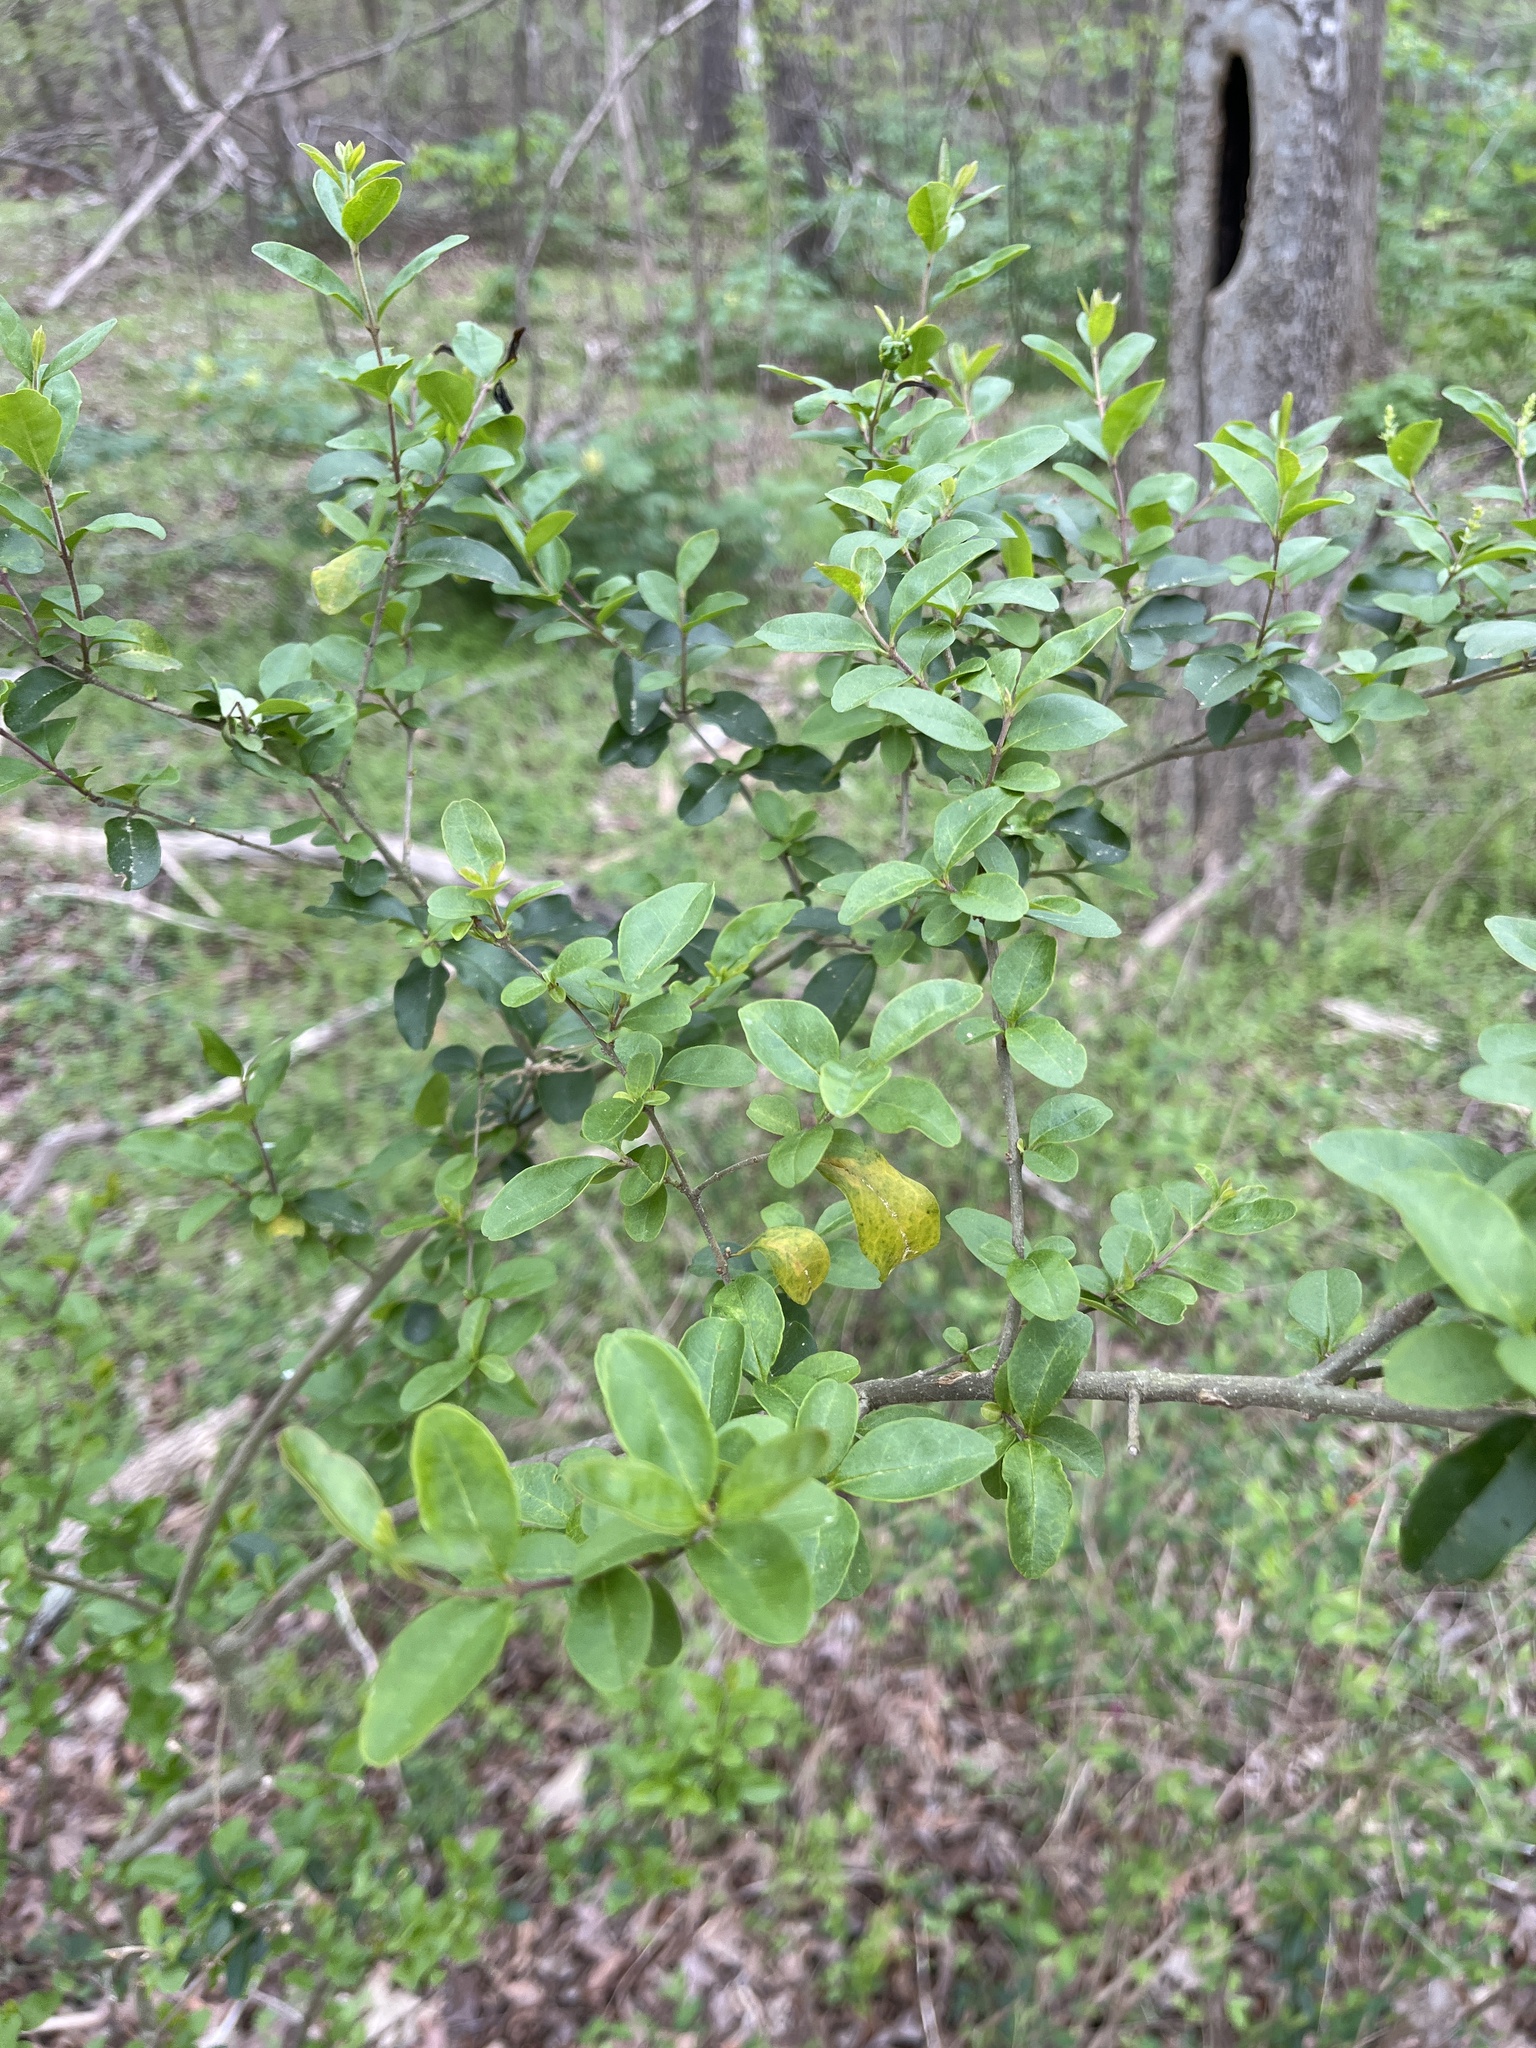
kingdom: Plantae
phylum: Tracheophyta
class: Magnoliopsida
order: Lamiales
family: Oleaceae
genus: Ligustrum
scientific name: Ligustrum sinense
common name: Chinese privet
